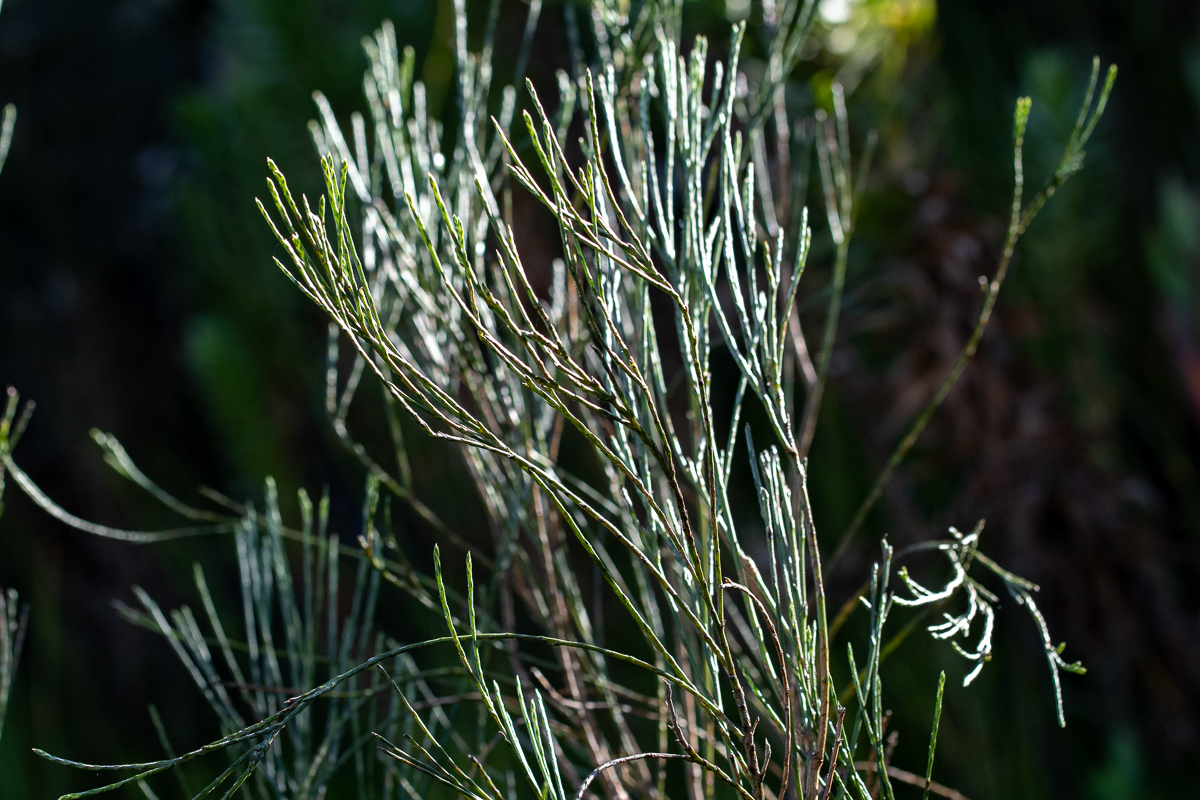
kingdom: Plantae
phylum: Tracheophyta
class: Magnoliopsida
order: Fabales
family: Fabaceae
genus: Psoralea
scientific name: Psoralea aphylla
